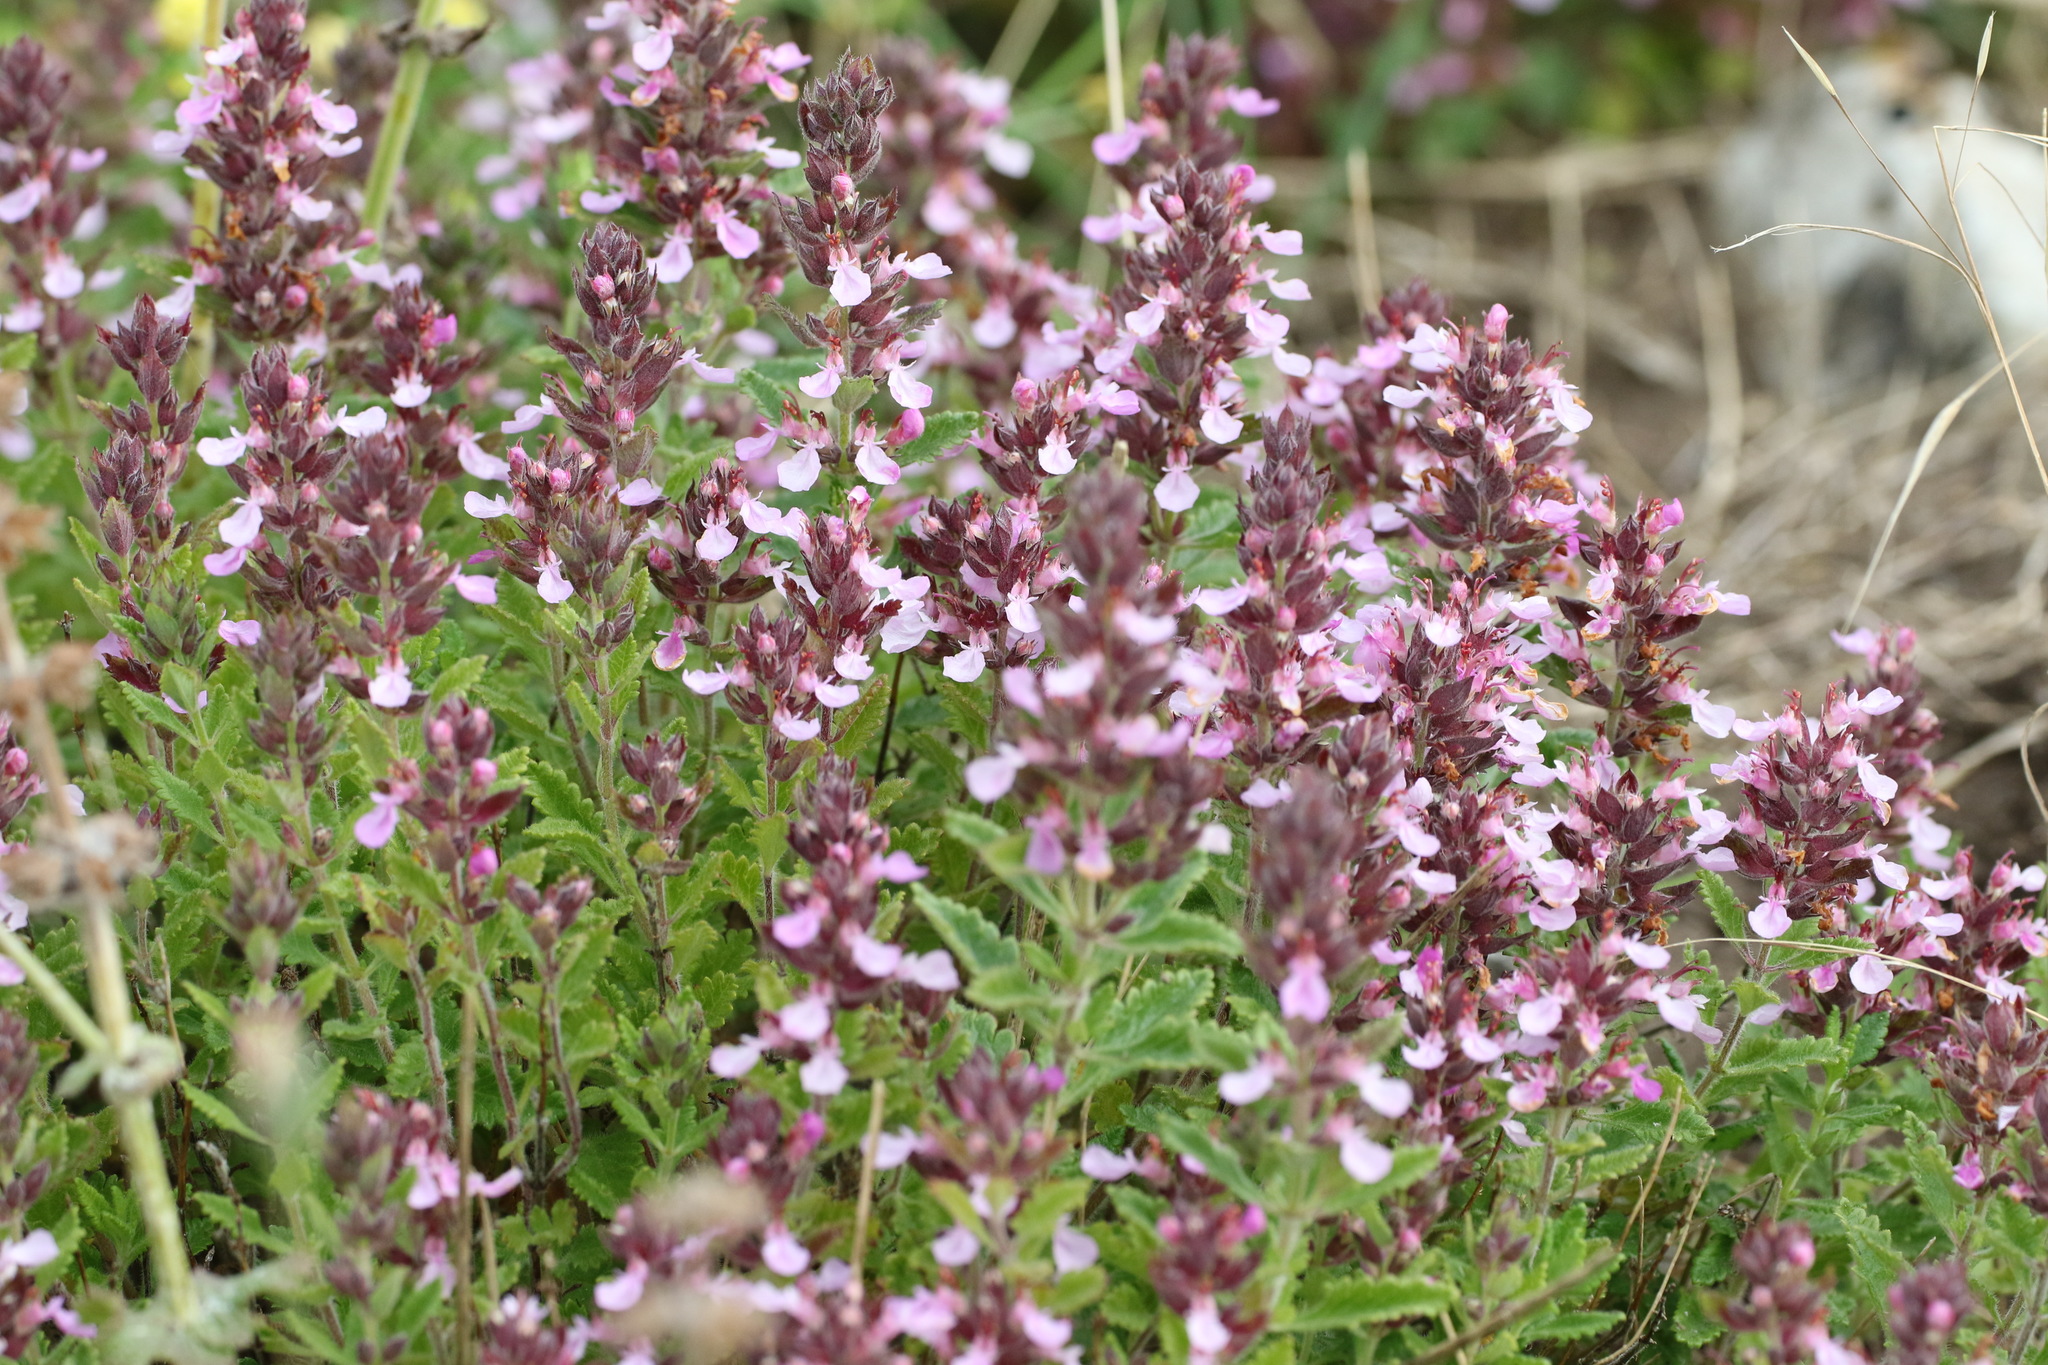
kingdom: Plantae
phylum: Tracheophyta
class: Magnoliopsida
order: Lamiales
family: Lamiaceae
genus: Teucrium
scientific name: Teucrium chamaedrys
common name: Wall germander
